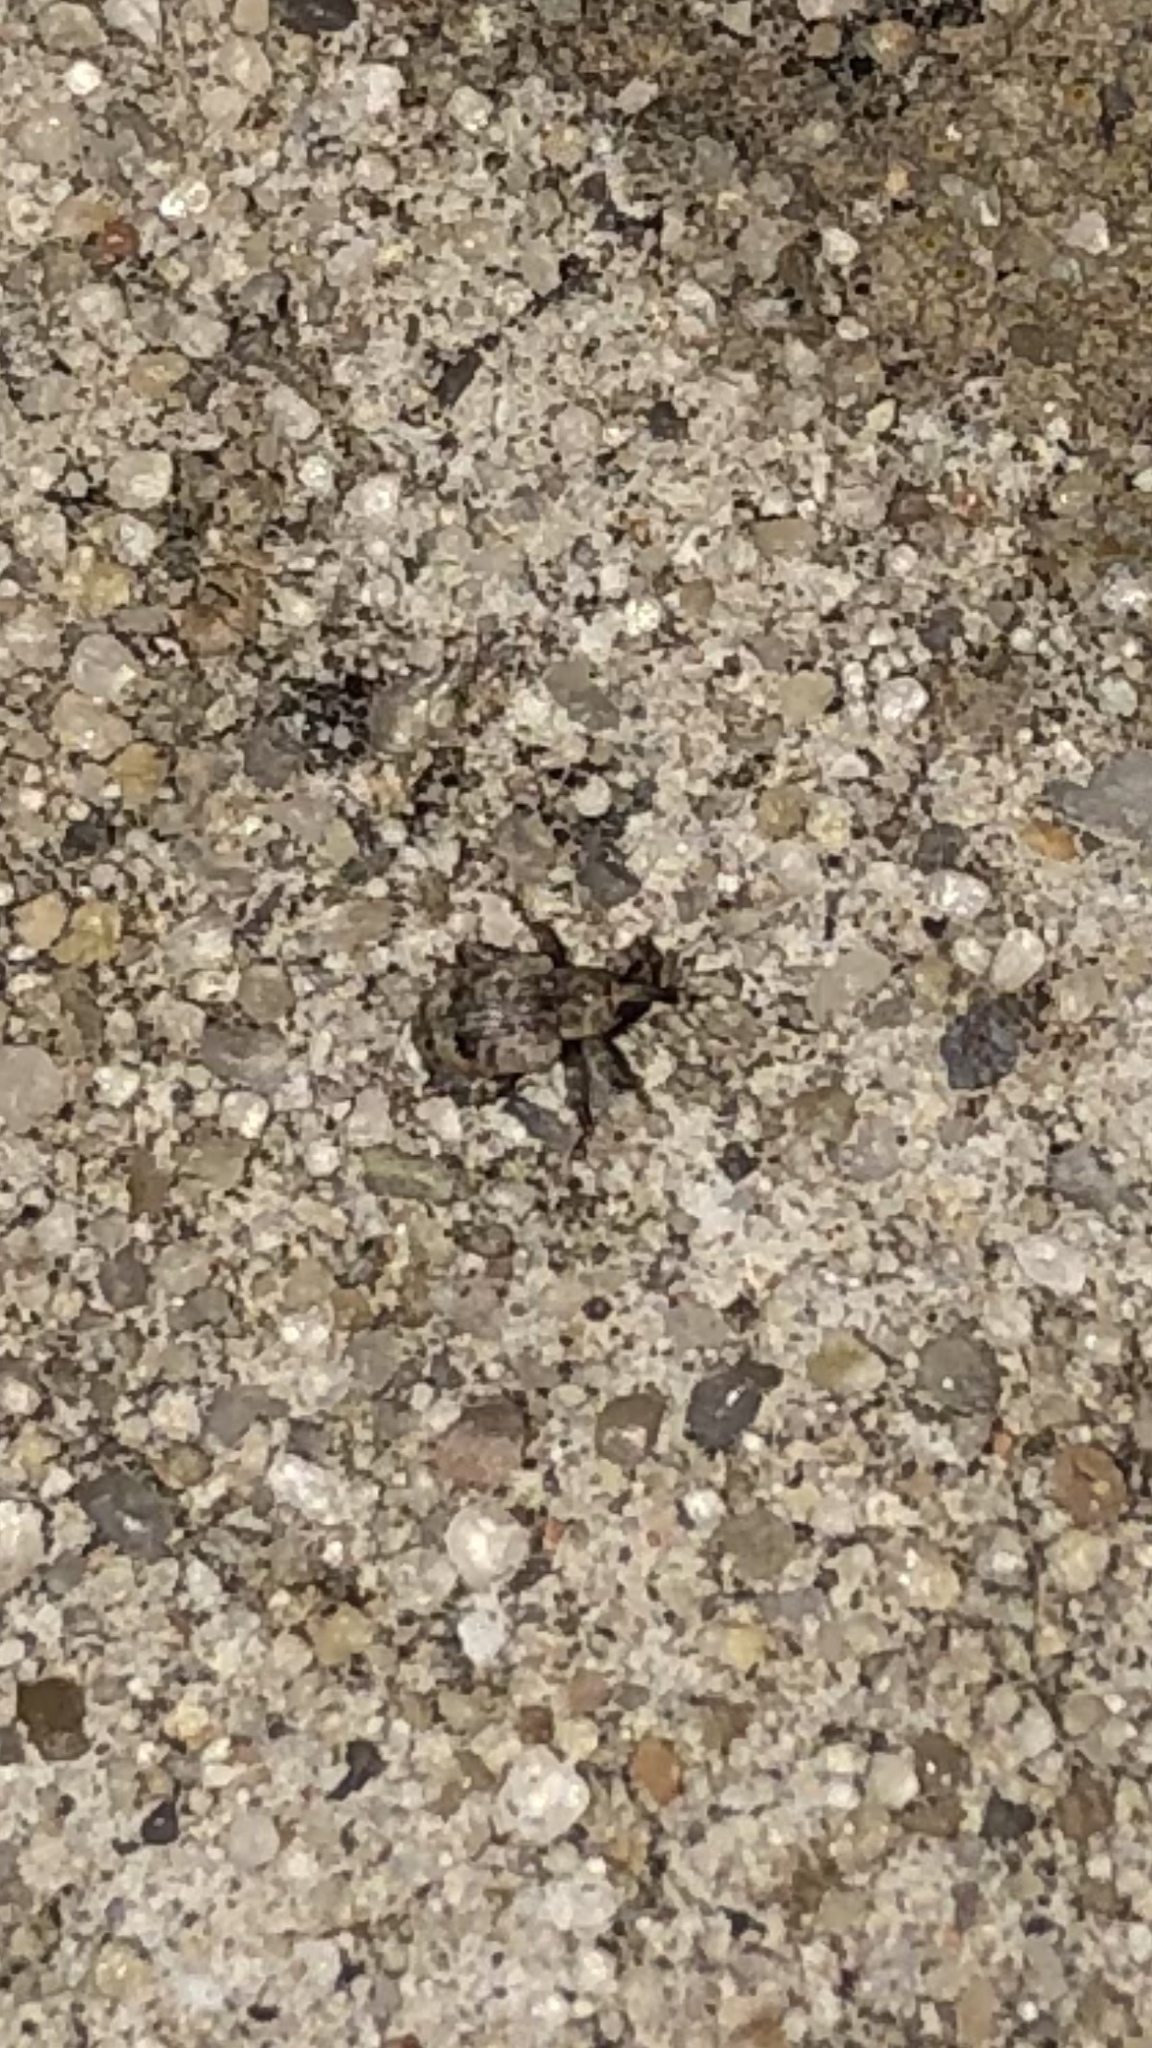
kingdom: Animalia
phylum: Arthropoda
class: Insecta
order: Coleoptera
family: Curculionidae
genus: Conotrachelus
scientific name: Conotrachelus recessus
